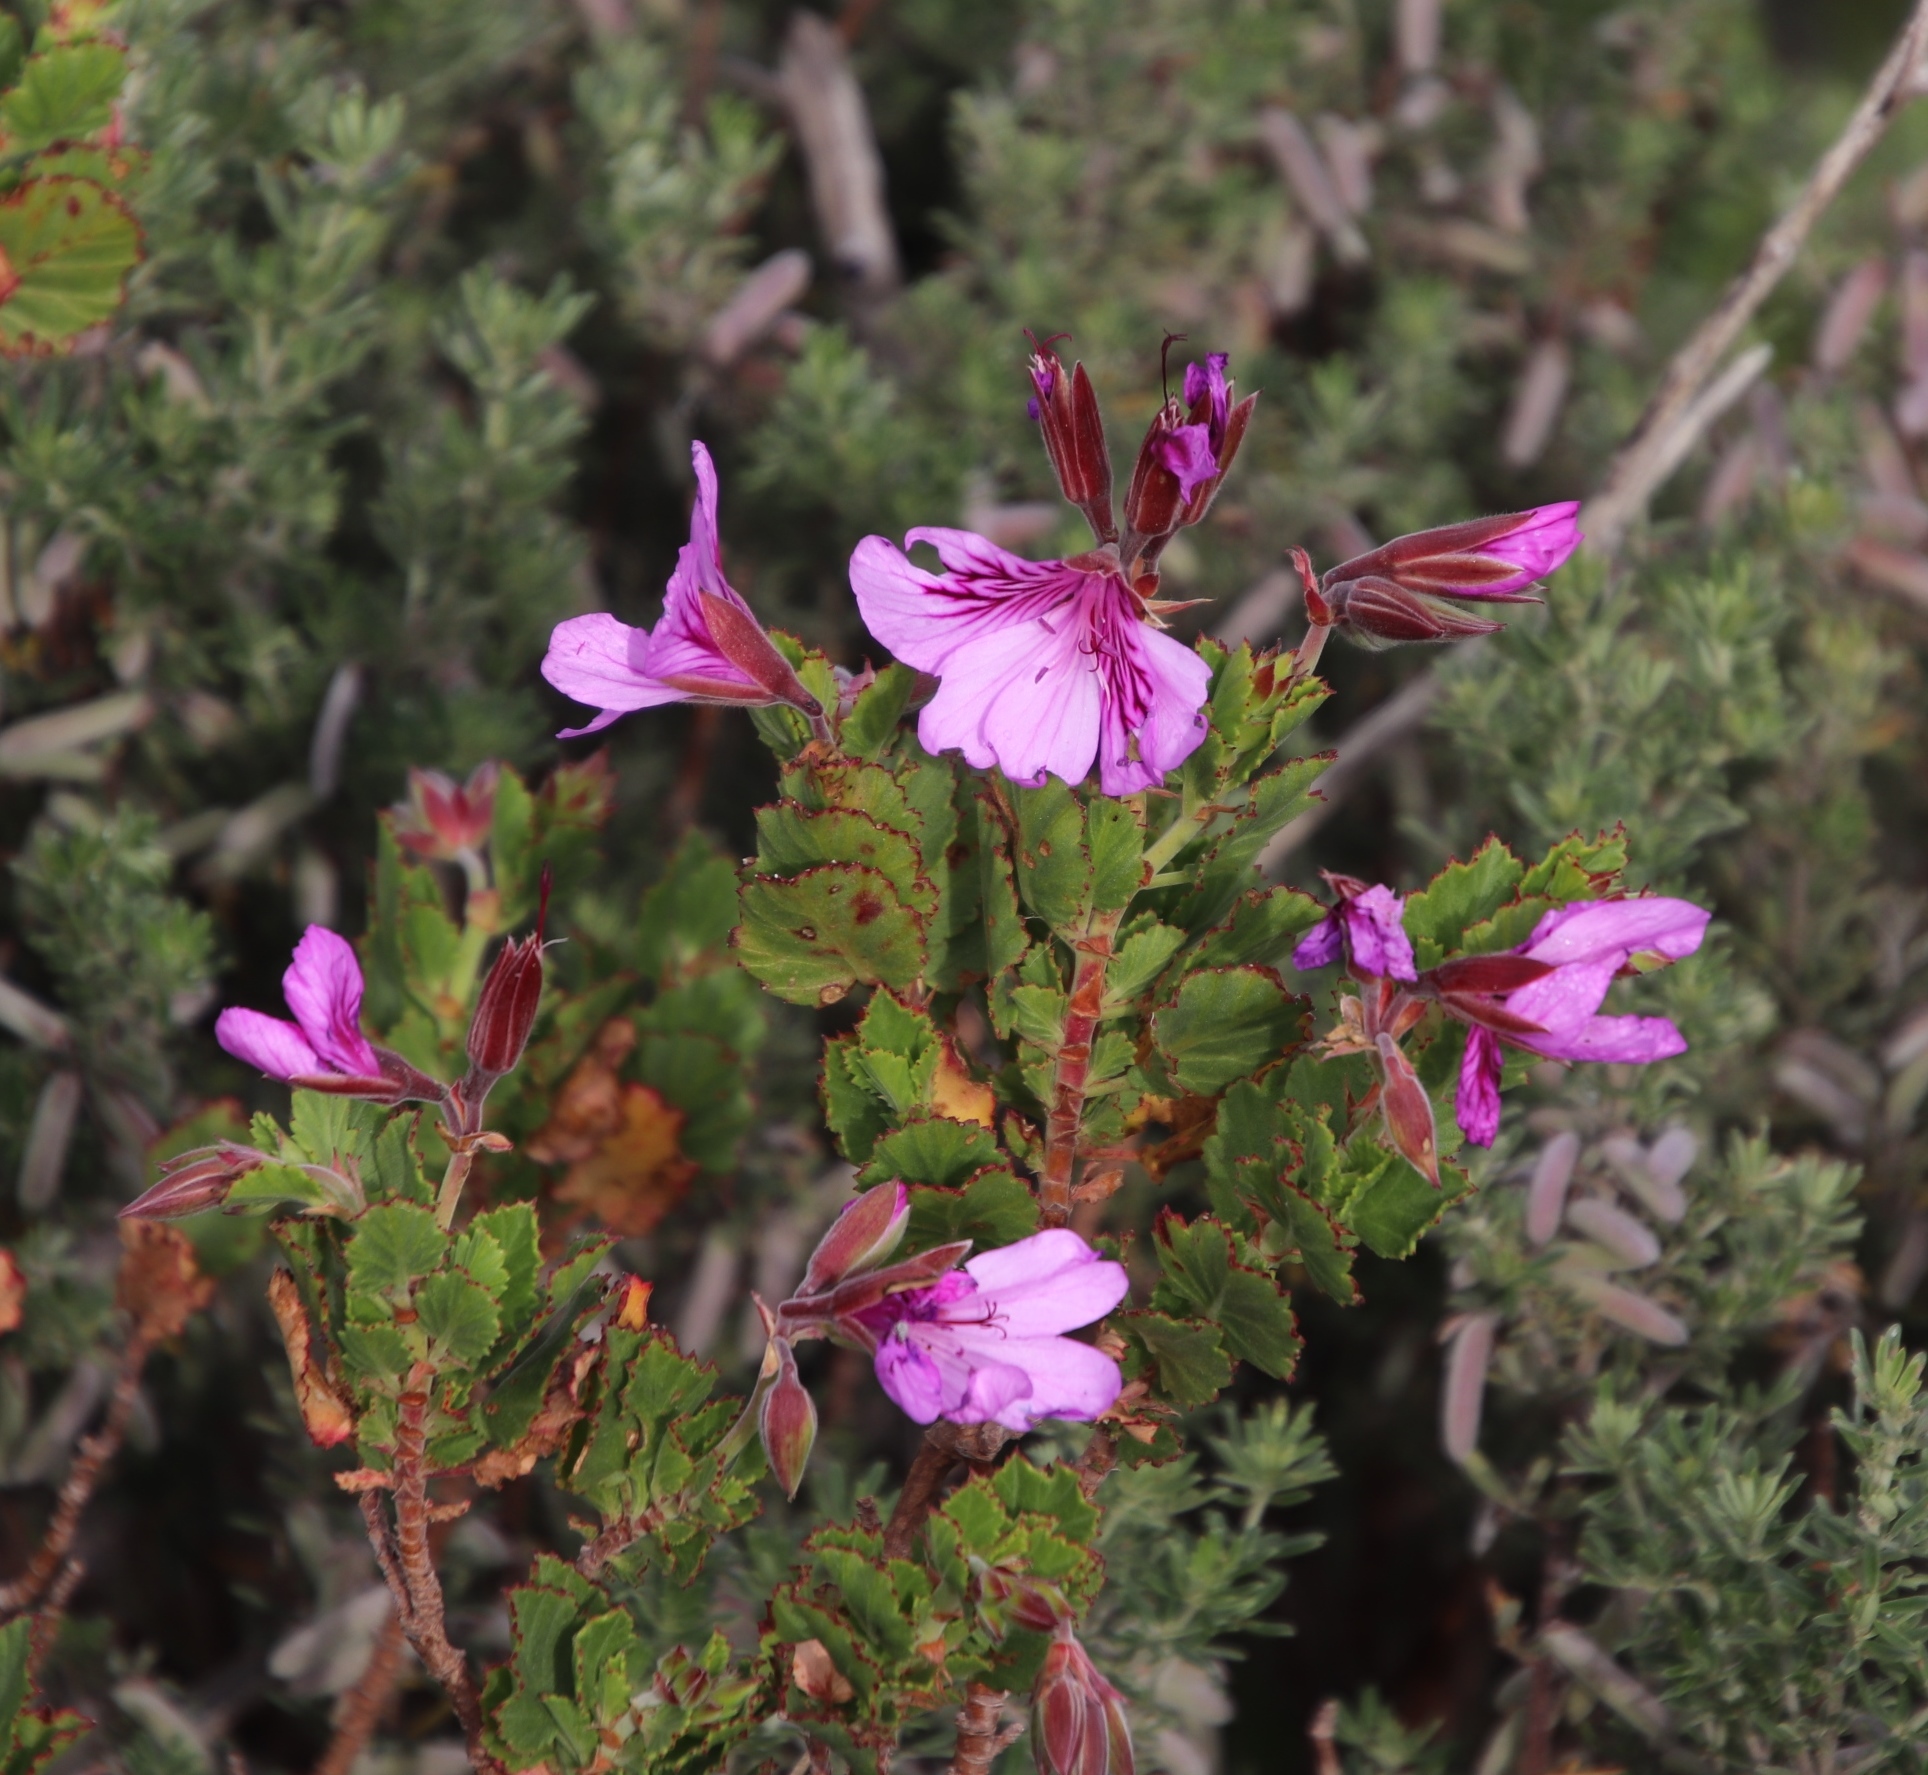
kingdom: Plantae
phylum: Tracheophyta
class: Magnoliopsida
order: Geraniales
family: Geraniaceae
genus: Pelargonium
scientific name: Pelargonium betulinum
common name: Birch-leaf pelargonium
